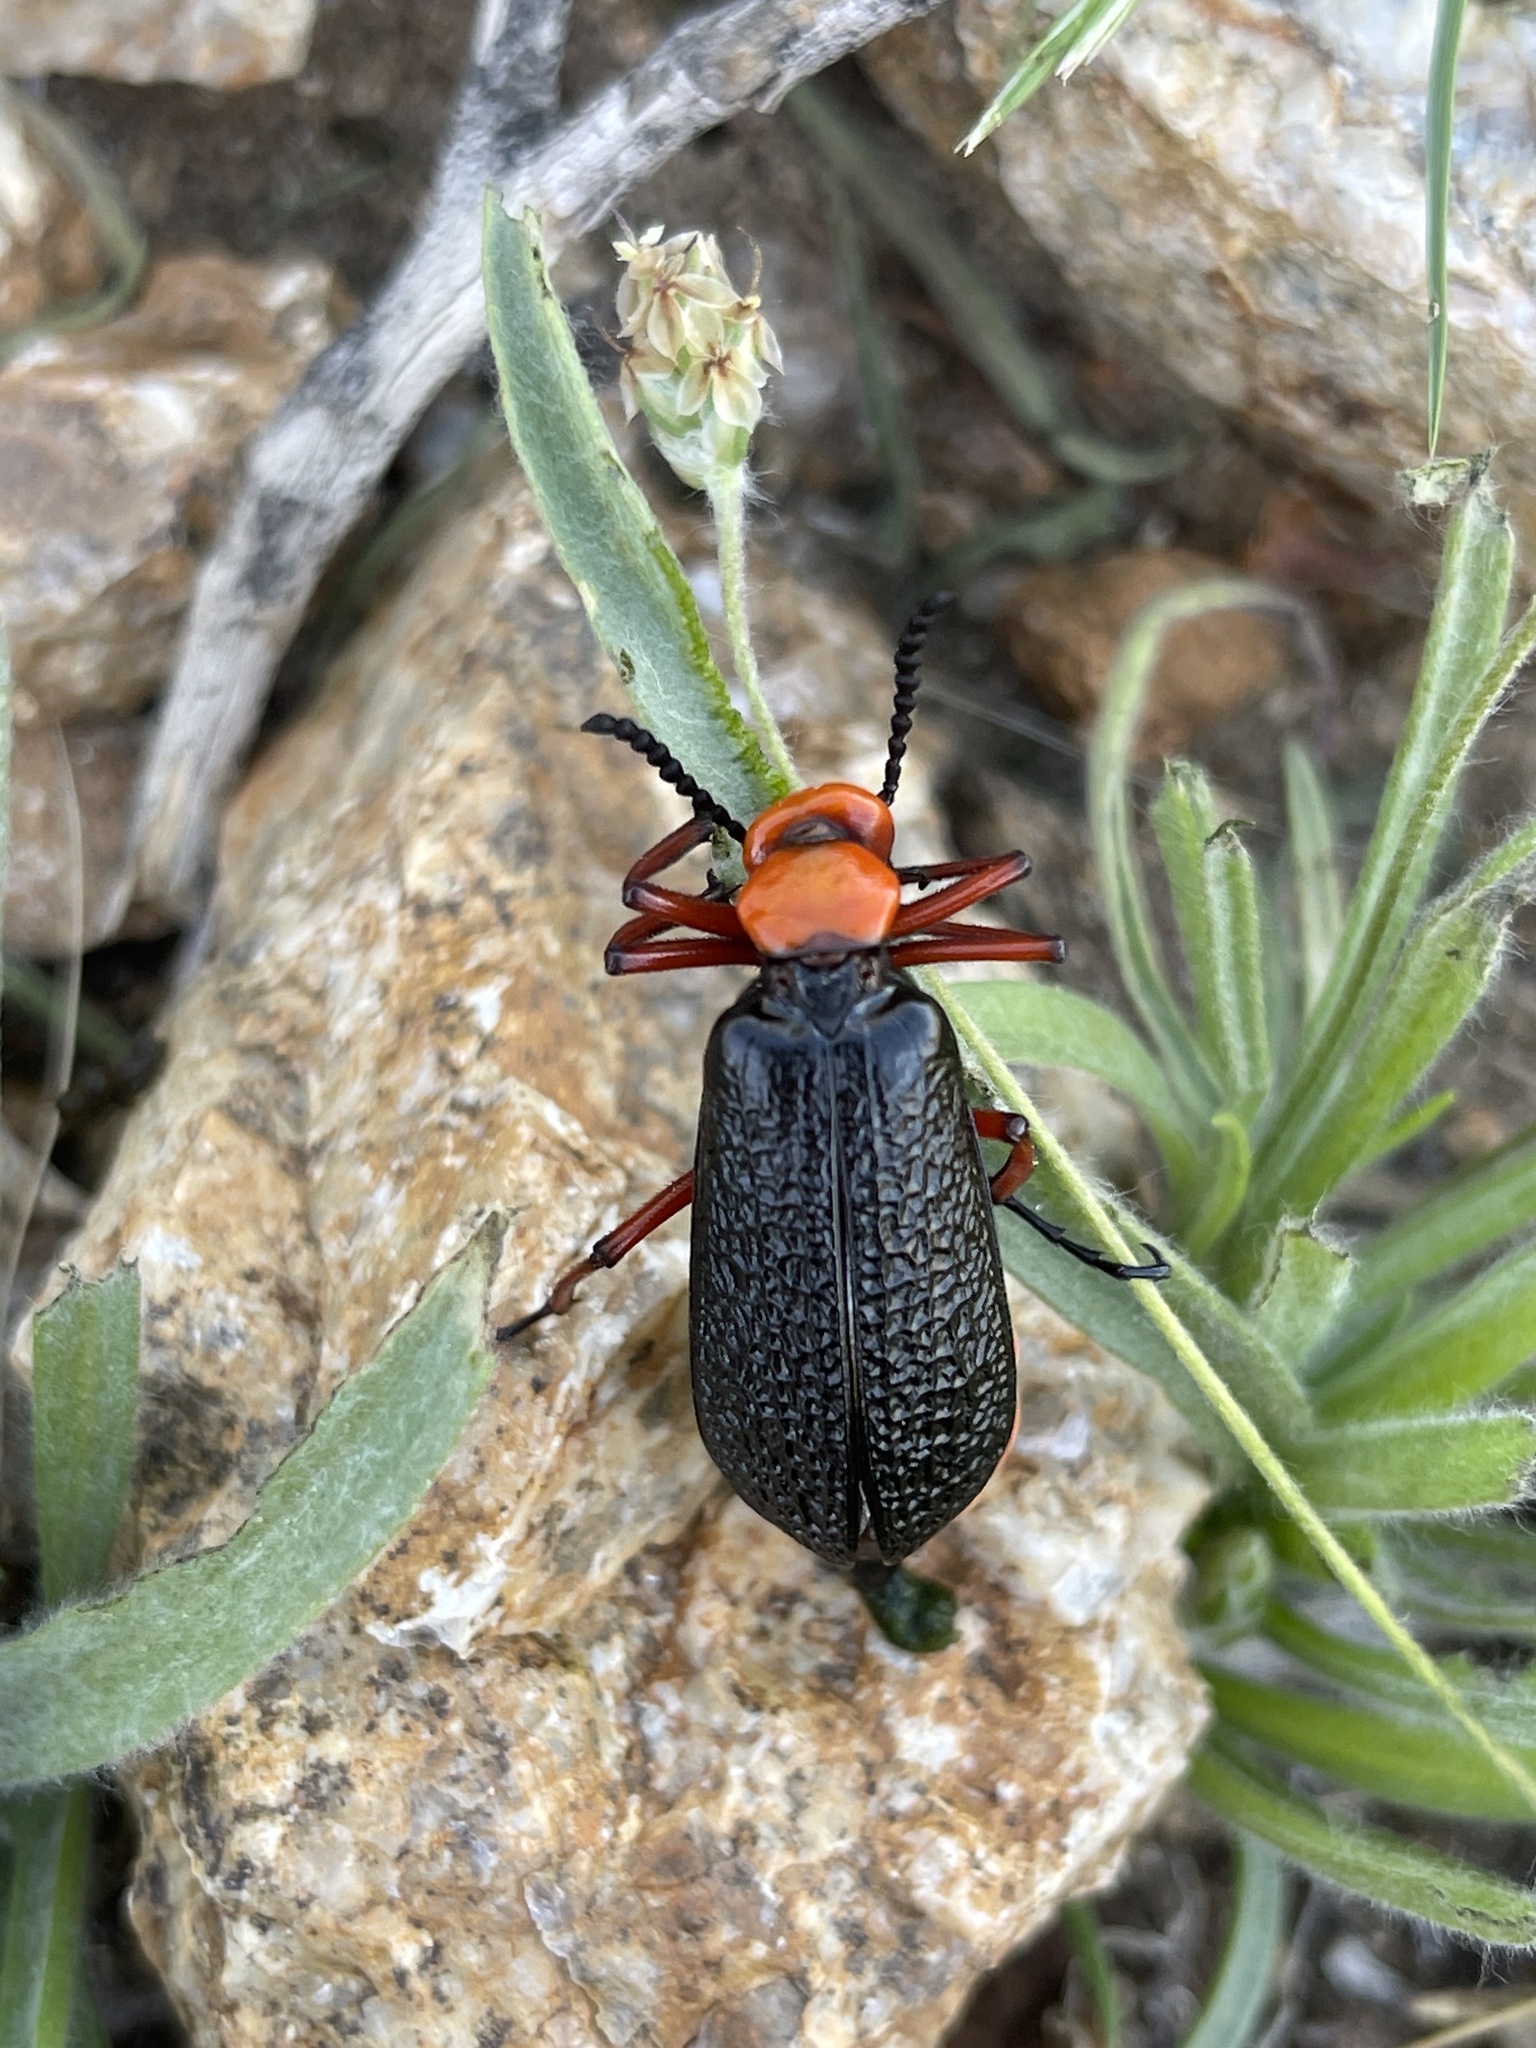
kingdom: Animalia
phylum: Arthropoda
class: Insecta
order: Coleoptera
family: Meloidae
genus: Lytta
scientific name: Lytta magister
